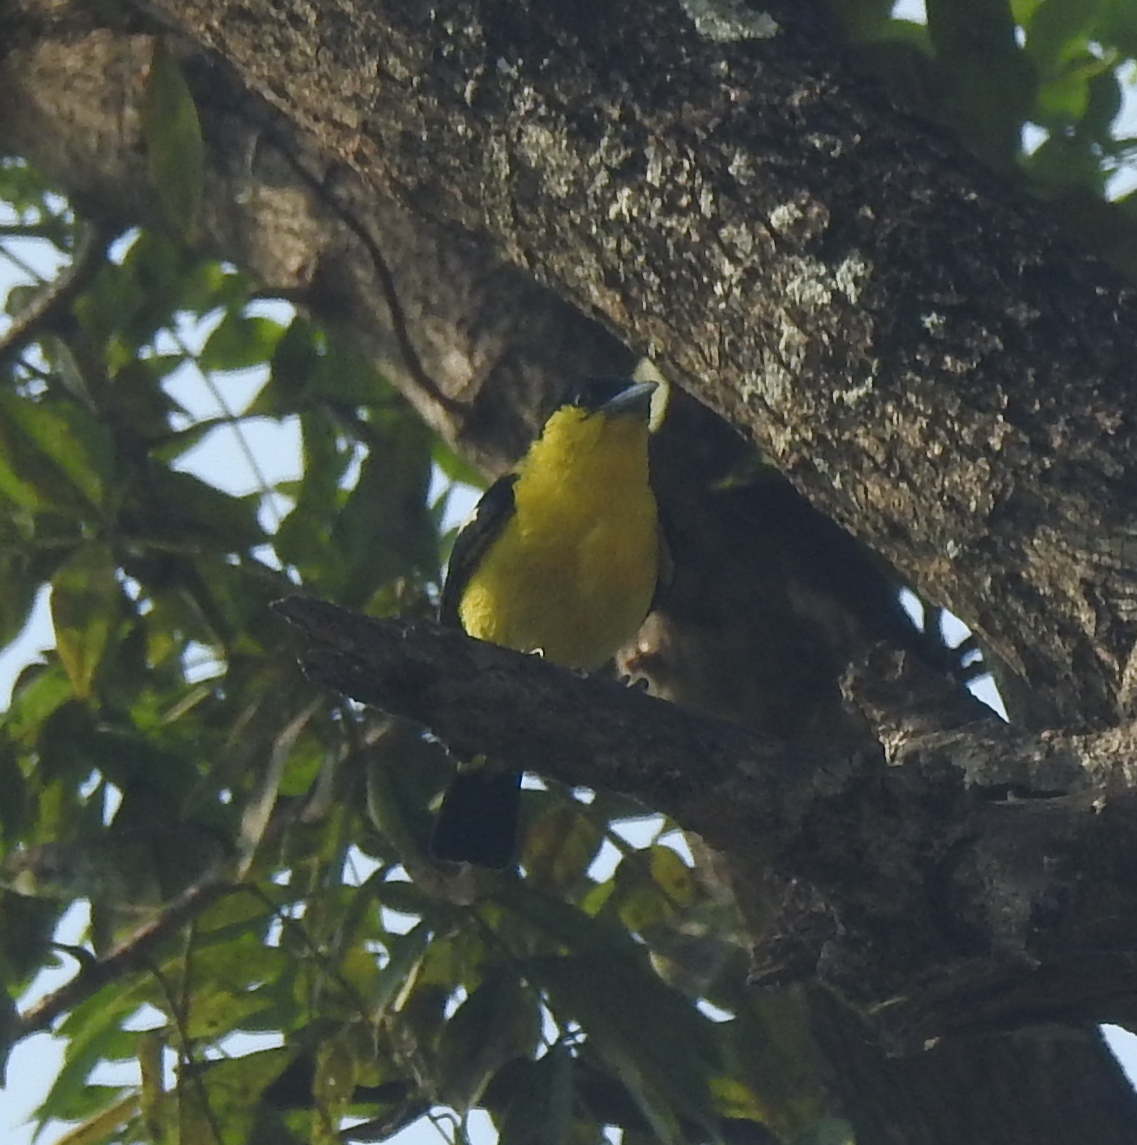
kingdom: Animalia
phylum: Chordata
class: Aves
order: Passeriformes
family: Aegithinidae
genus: Aegithina
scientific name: Aegithina tiphia
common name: Common iora
